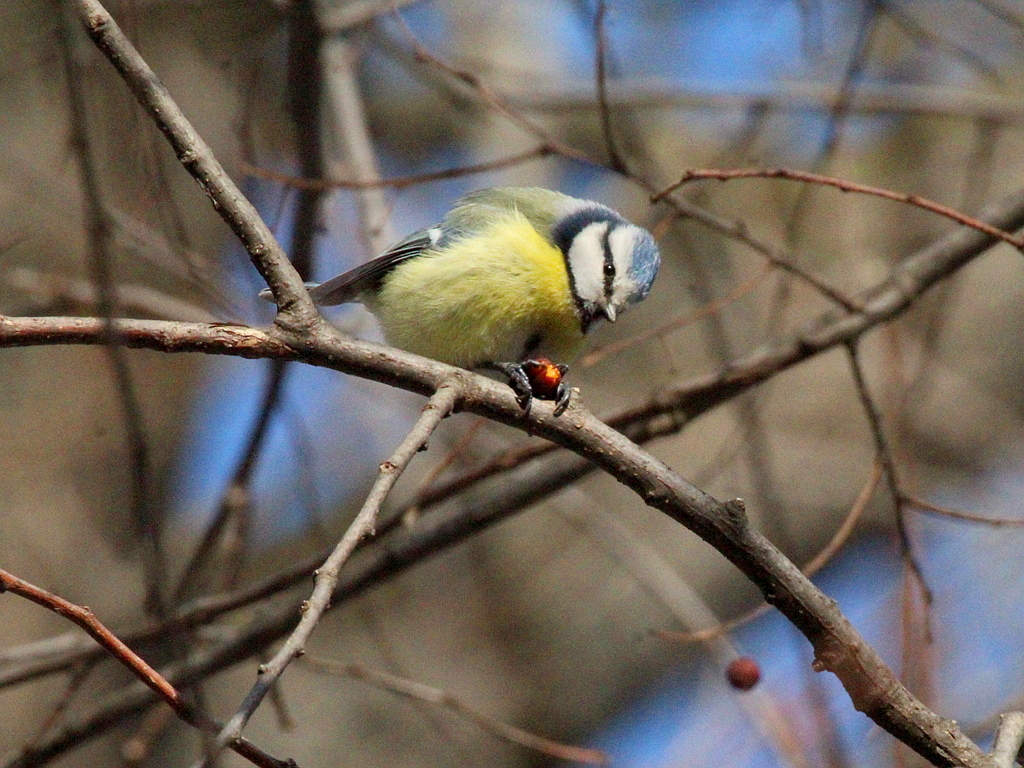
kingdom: Animalia
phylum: Chordata
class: Aves
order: Passeriformes
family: Paridae
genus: Cyanistes
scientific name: Cyanistes caeruleus
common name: Eurasian blue tit
